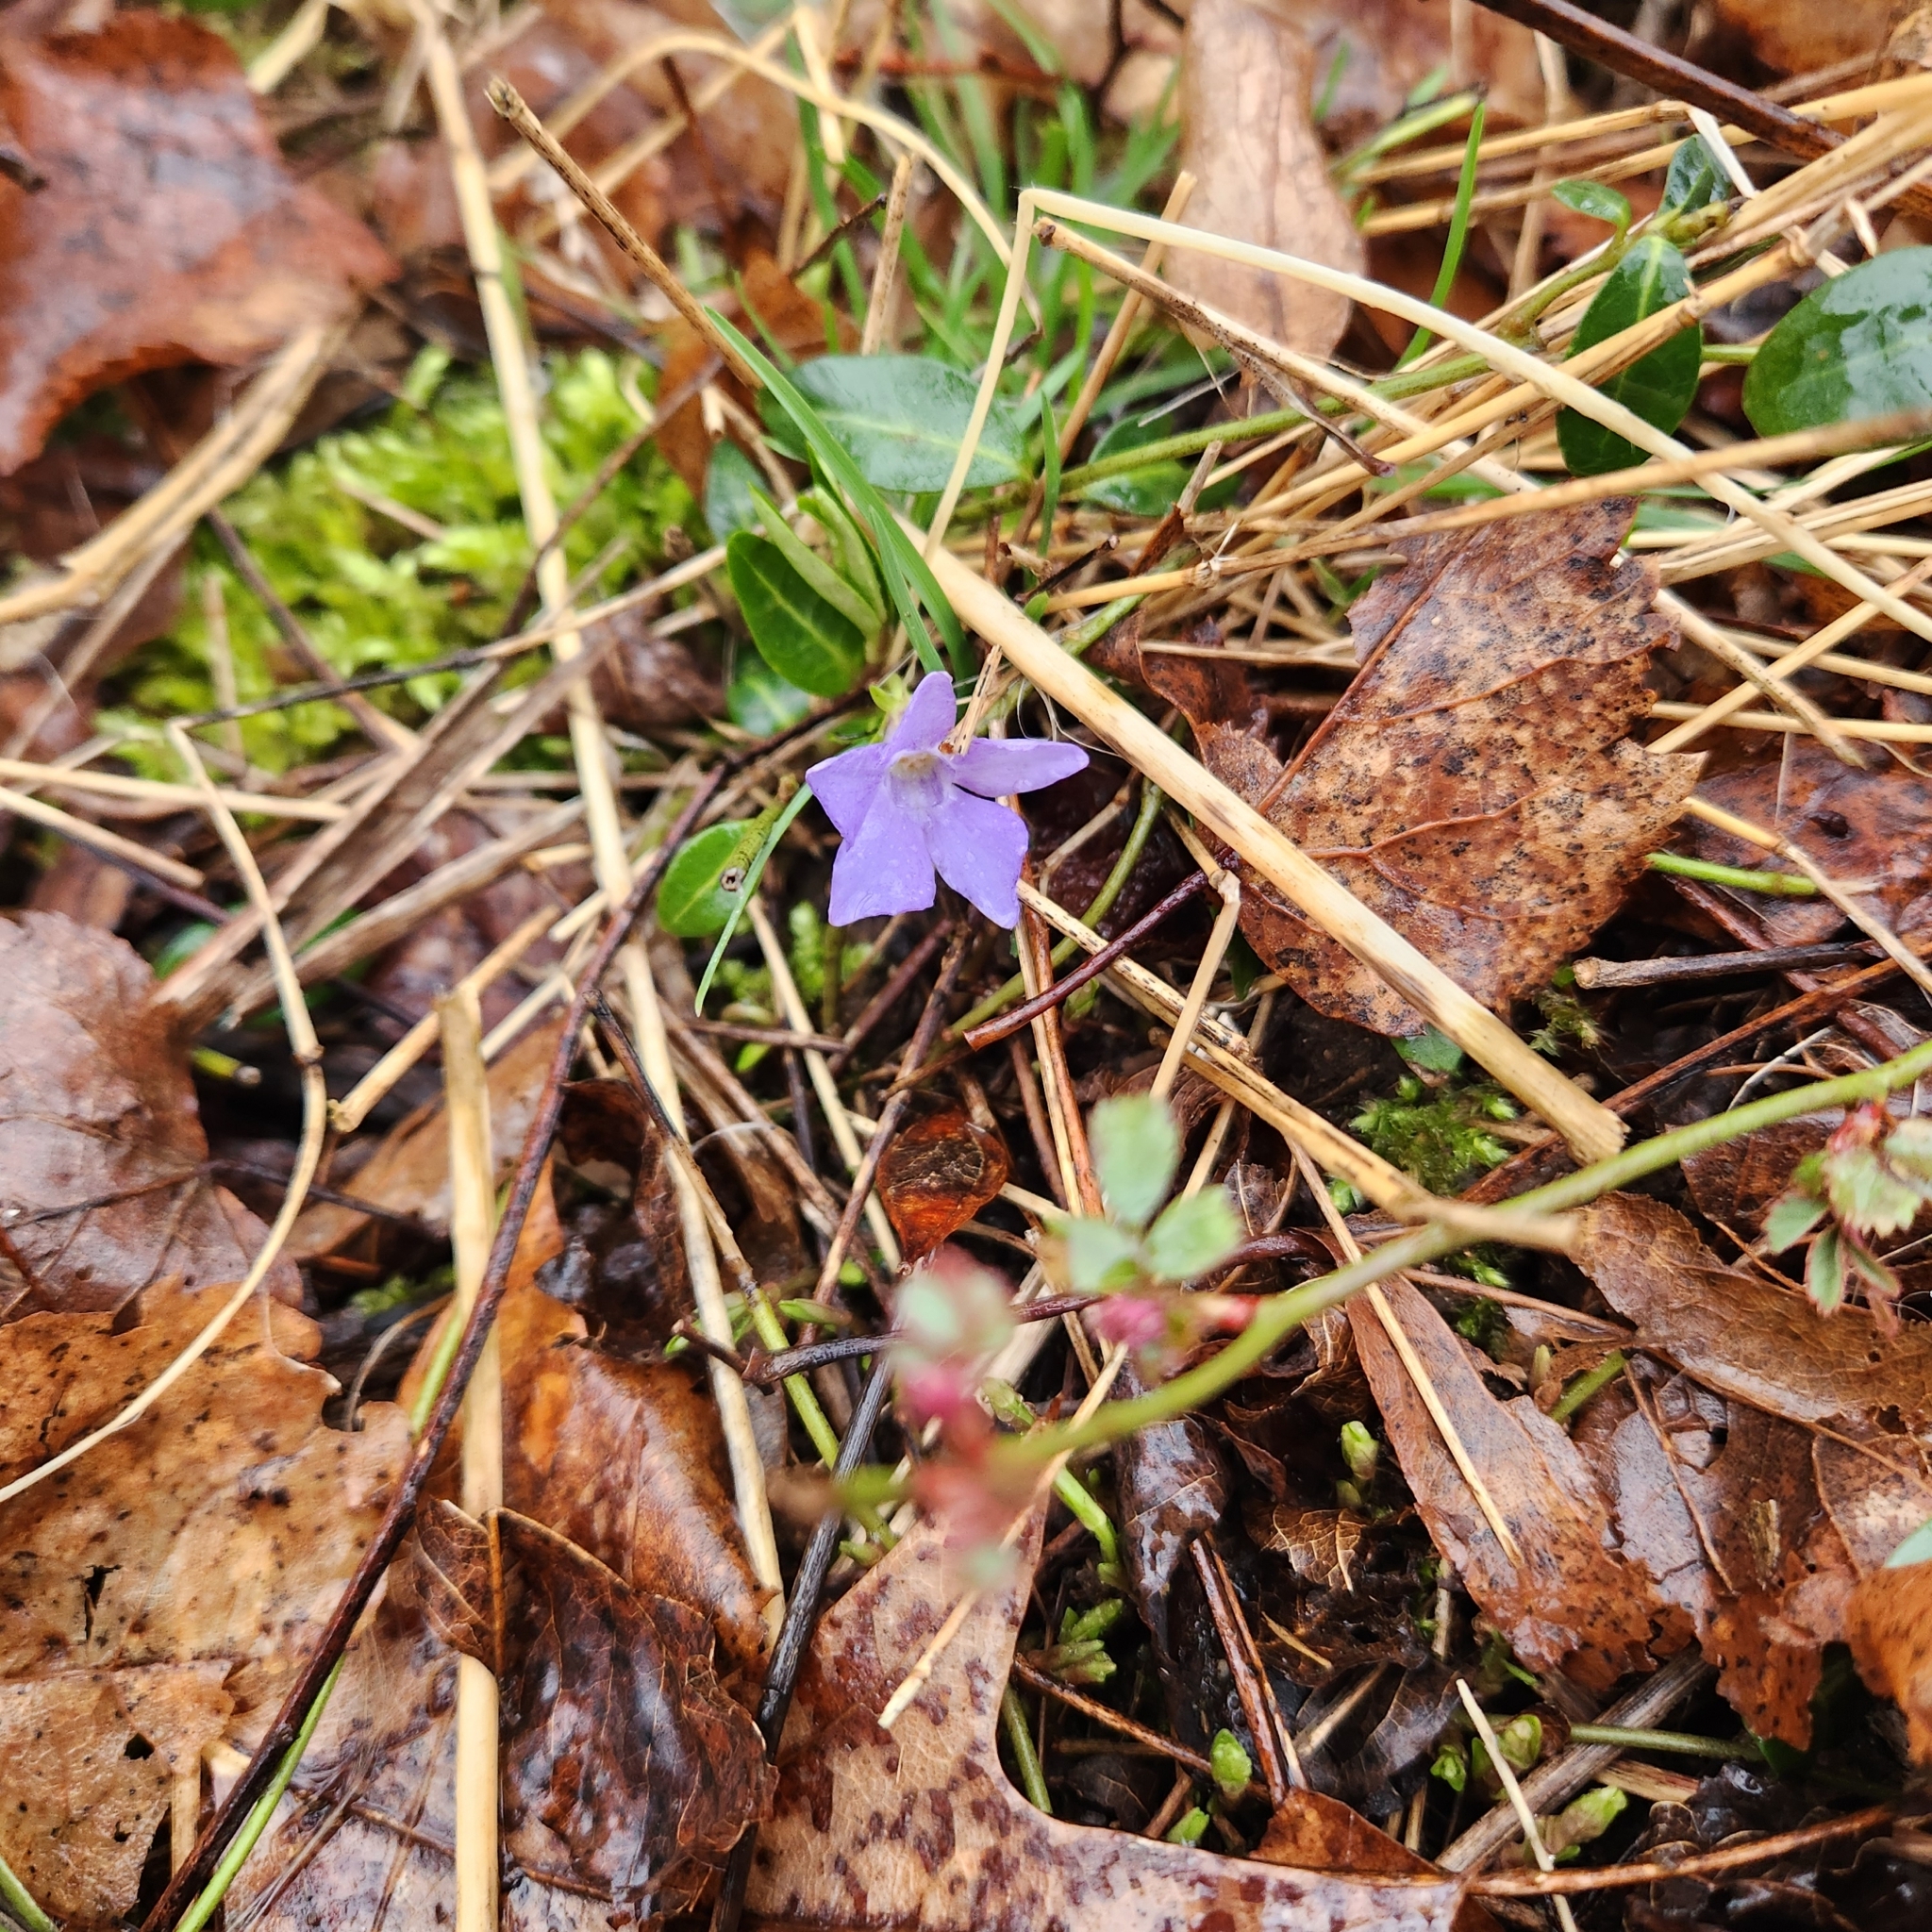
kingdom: Plantae
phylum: Tracheophyta
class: Magnoliopsida
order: Gentianales
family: Apocynaceae
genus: Vinca
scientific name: Vinca minor
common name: Lesser periwinkle
